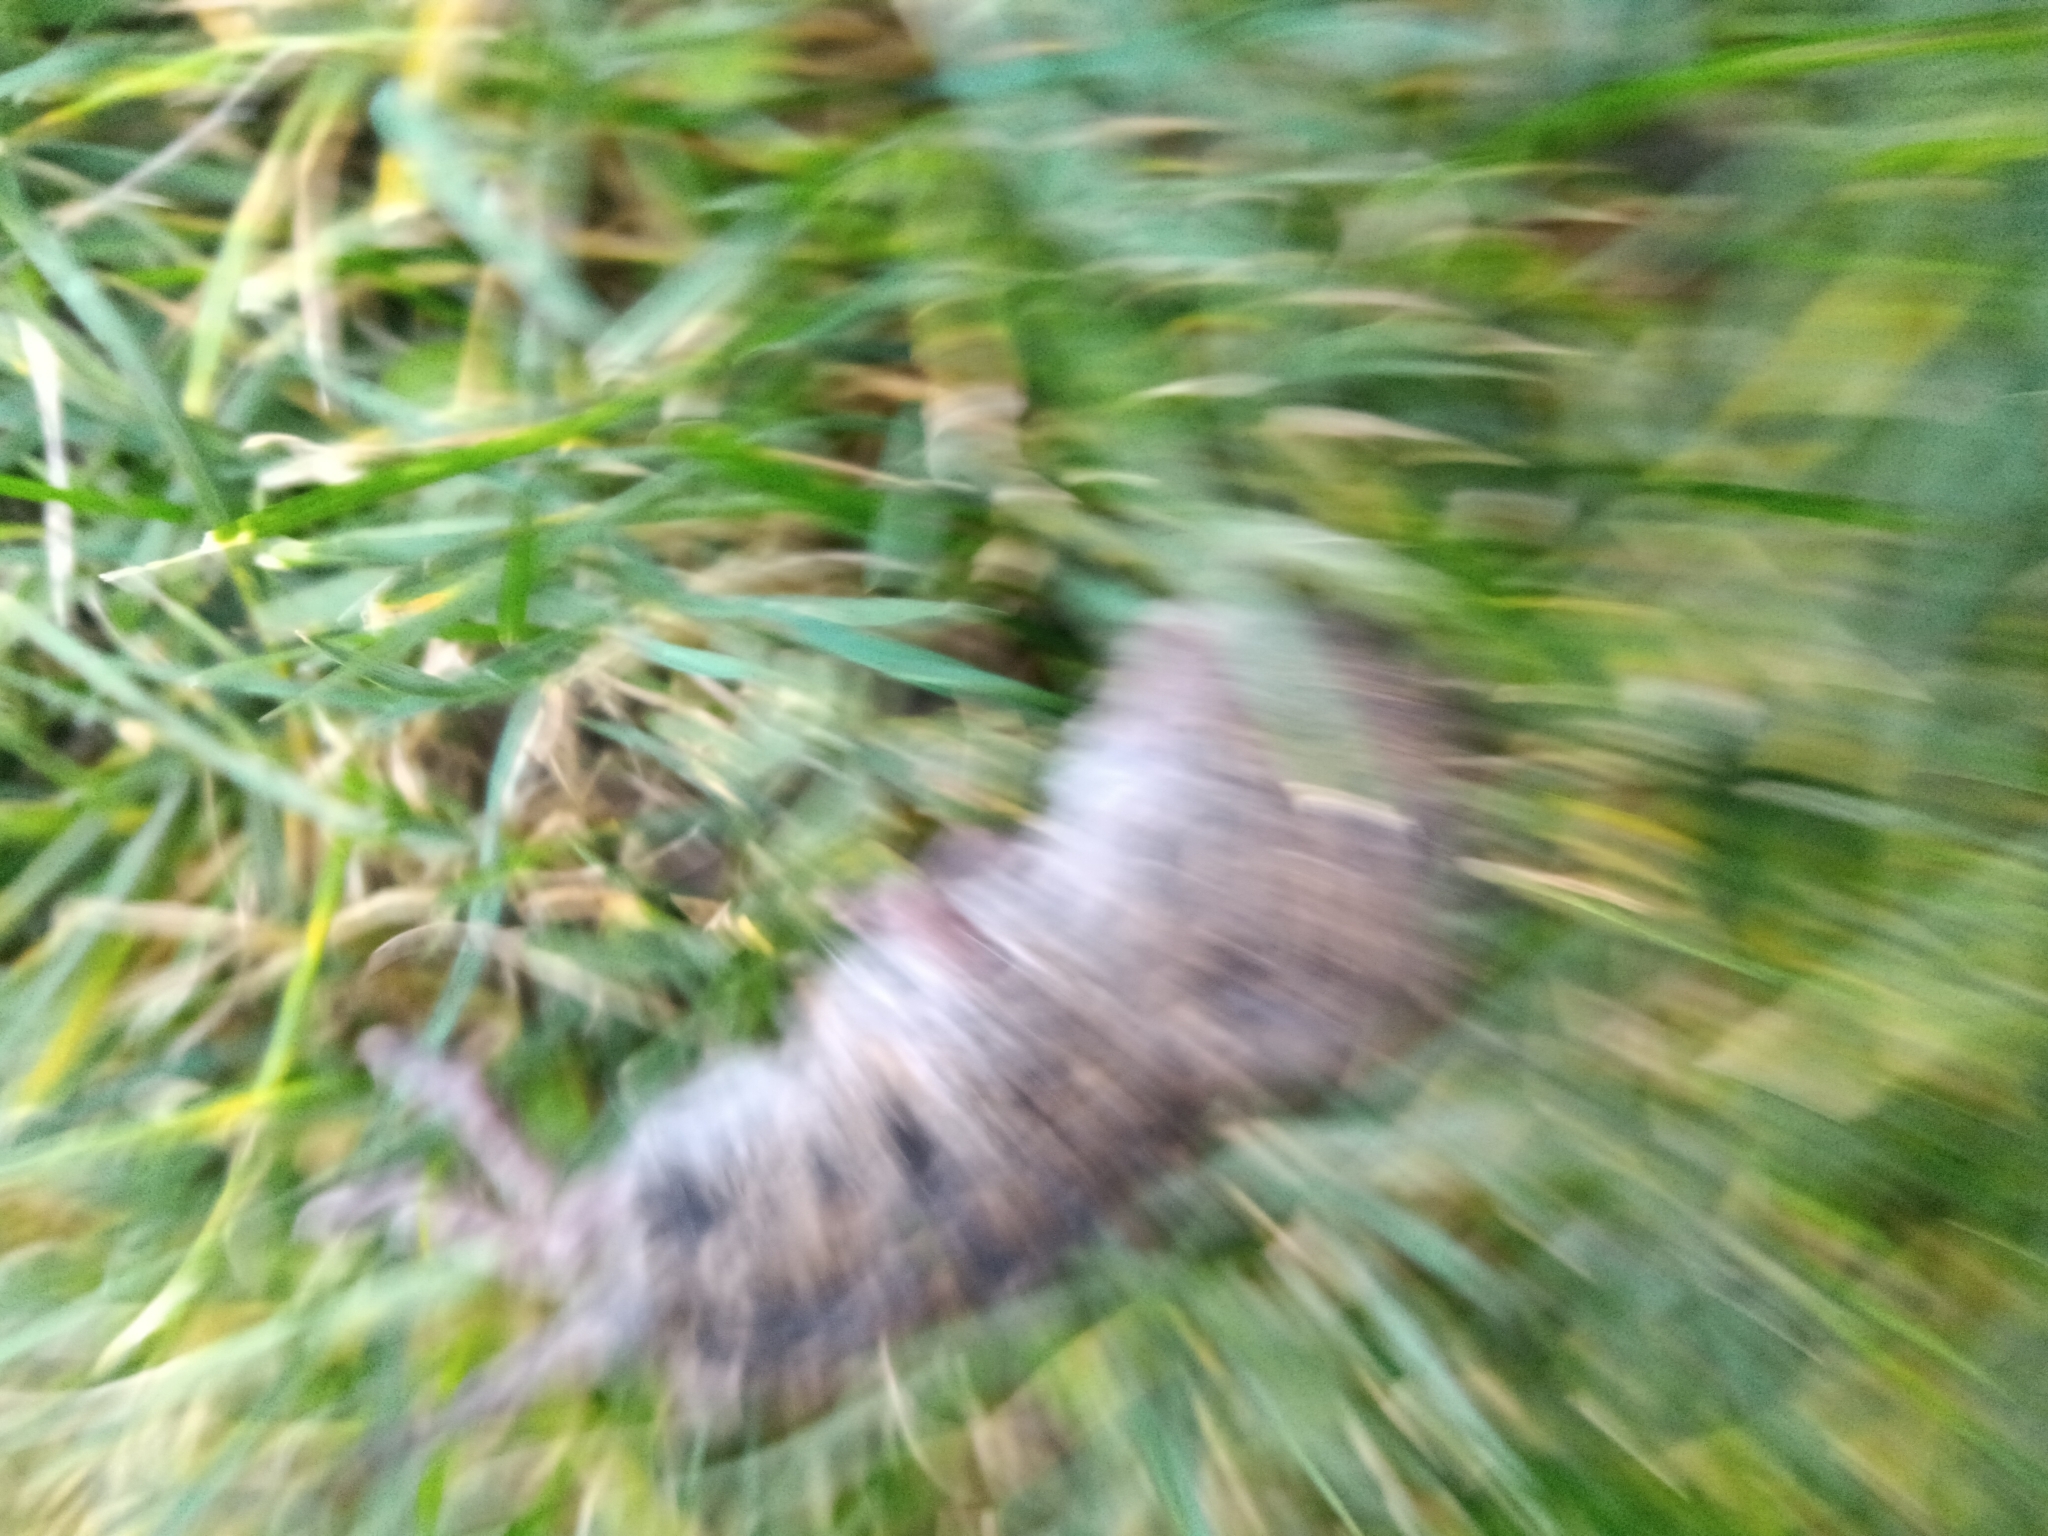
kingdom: Animalia
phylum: Chordata
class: Mammalia
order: Rodentia
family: Cricetidae
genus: Microtus
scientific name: Microtus pennsylvanicus
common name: Meadow vole
